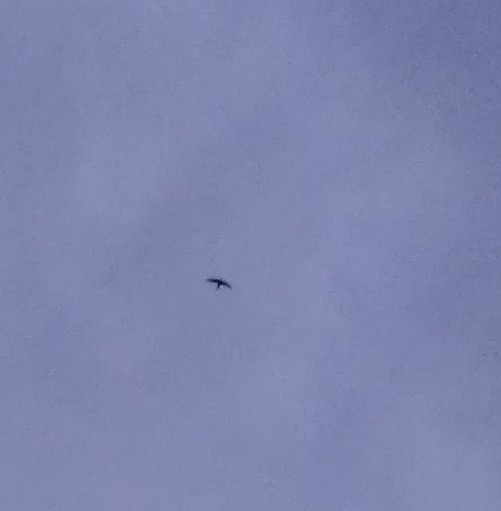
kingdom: Animalia
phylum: Chordata
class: Aves
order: Apodiformes
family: Apodidae
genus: Apus
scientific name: Apus apus
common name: Common swift
